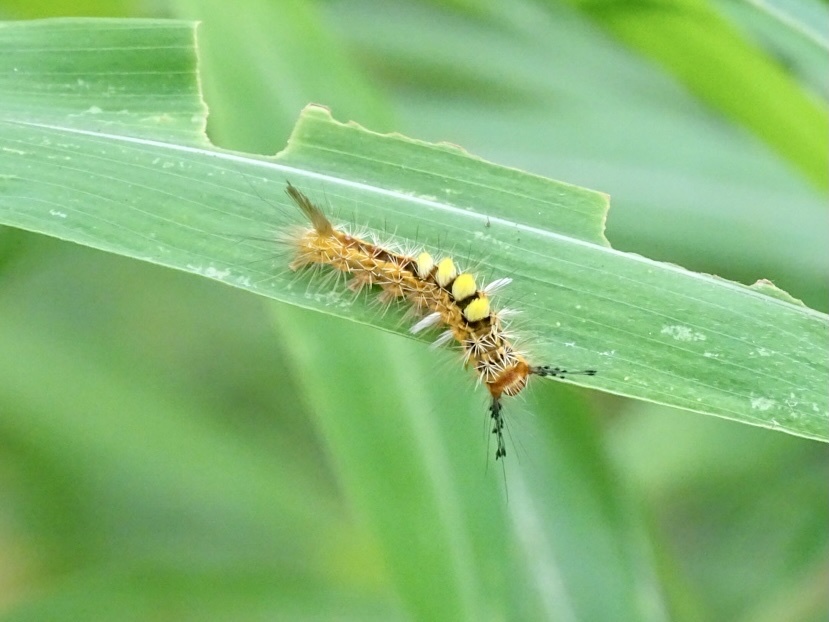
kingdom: Animalia
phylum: Arthropoda
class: Insecta
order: Lepidoptera
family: Erebidae
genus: Orgyia
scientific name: Orgyia postica
